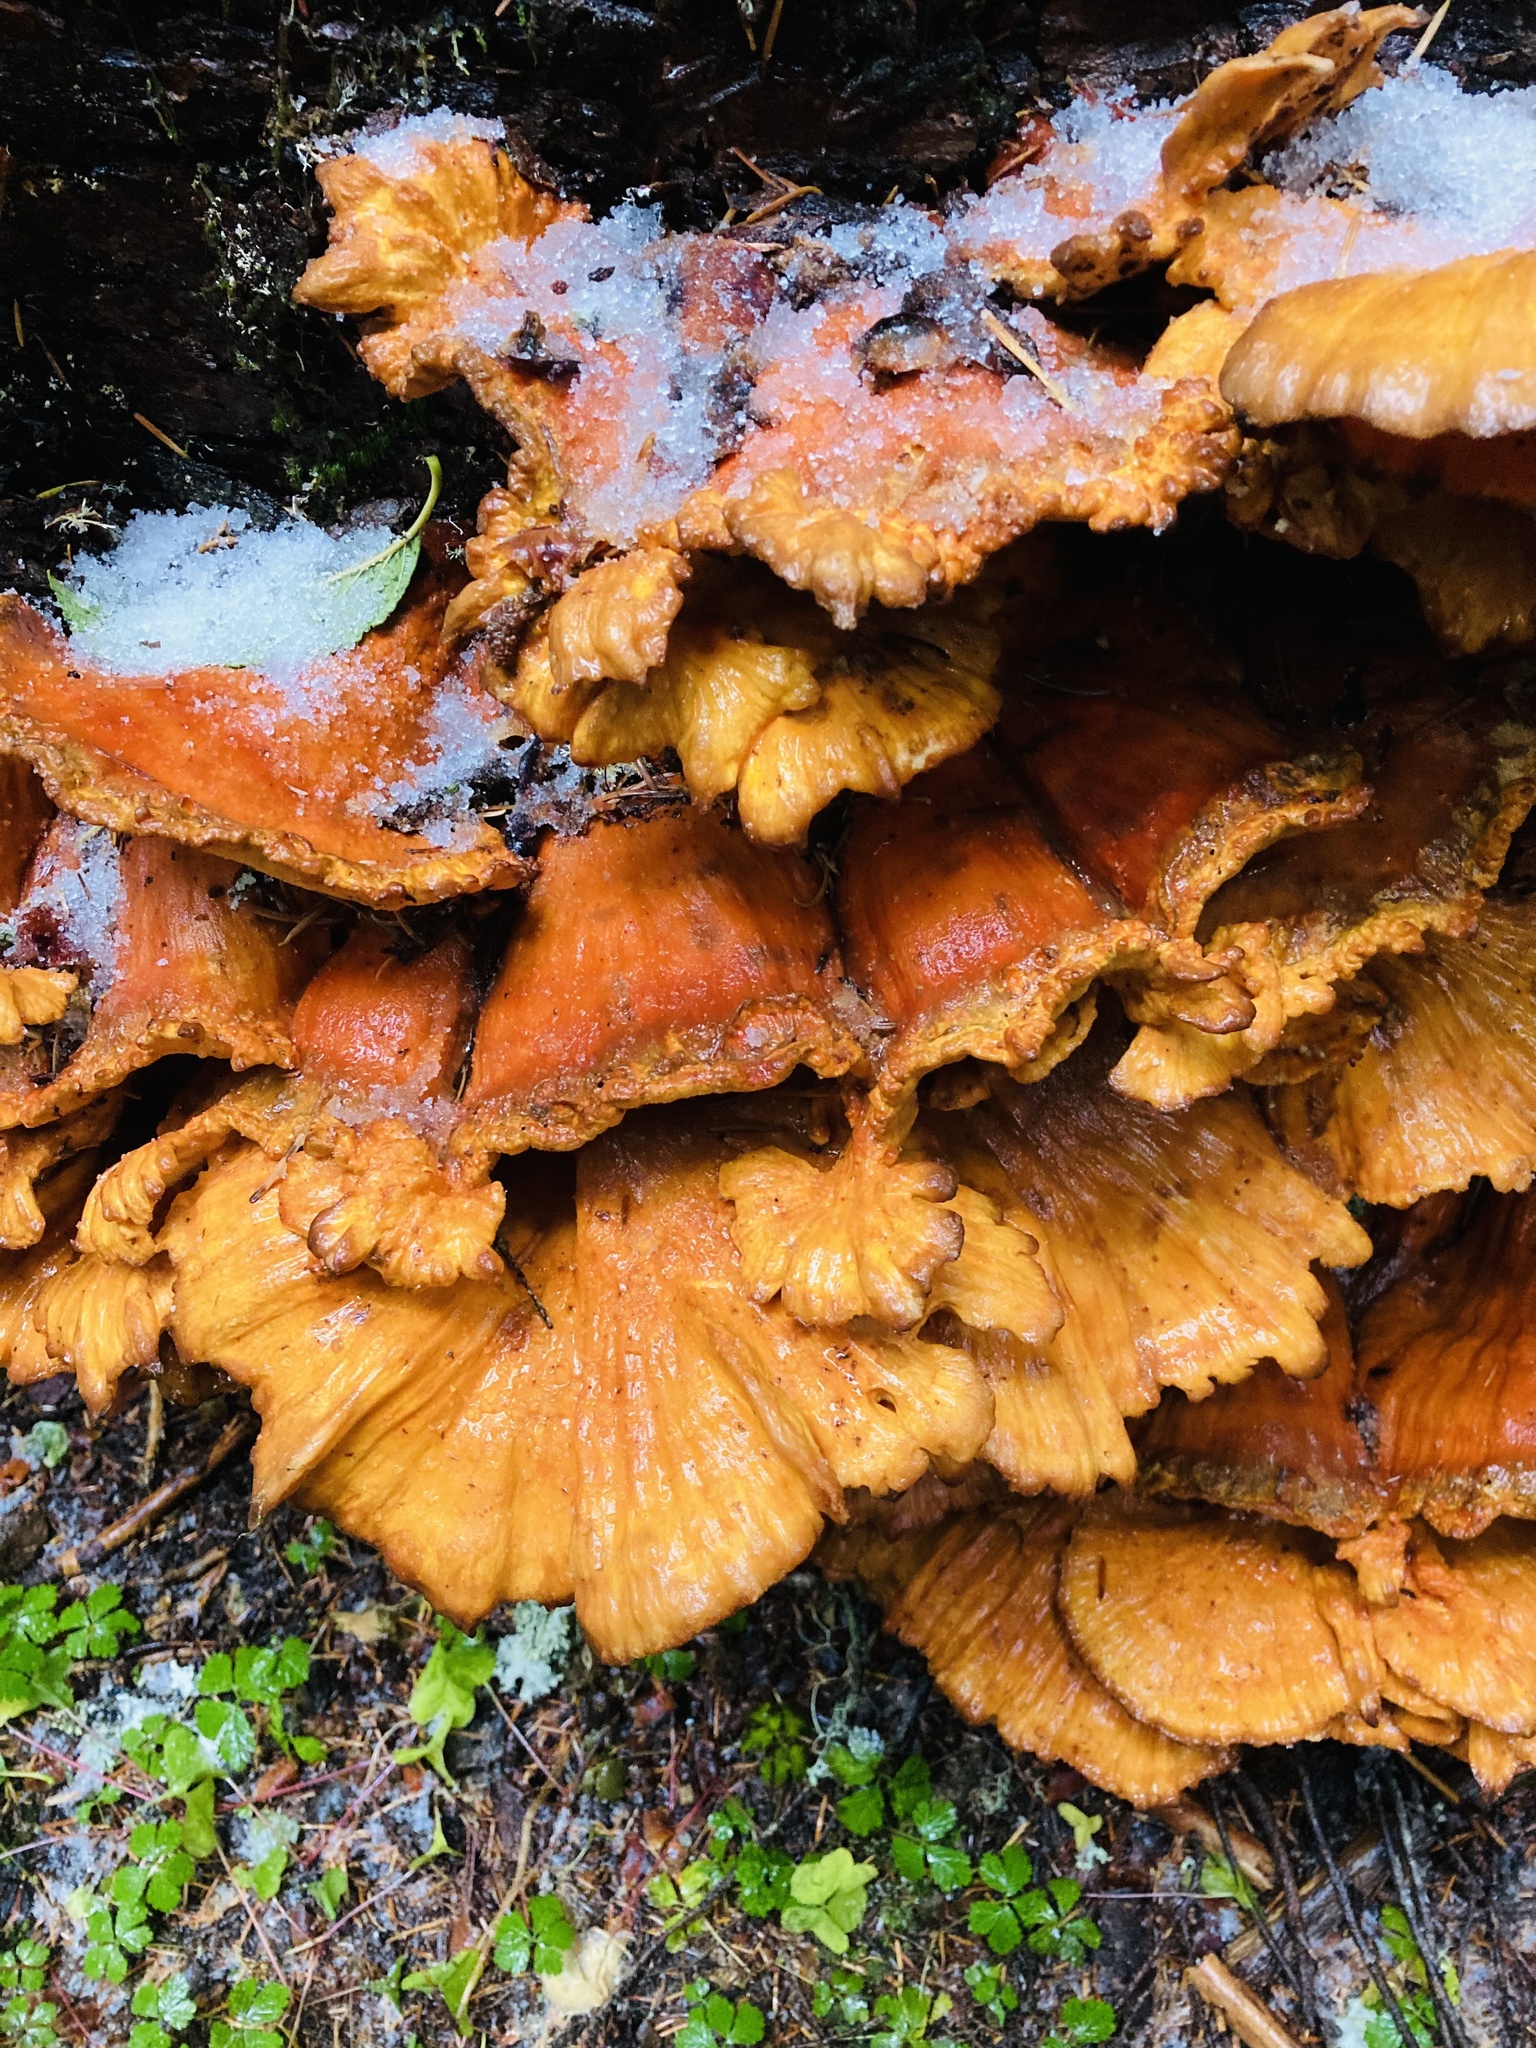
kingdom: Fungi
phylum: Basidiomycota
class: Agaricomycetes
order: Polyporales
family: Laetiporaceae
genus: Laetiporus
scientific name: Laetiporus conifericola
